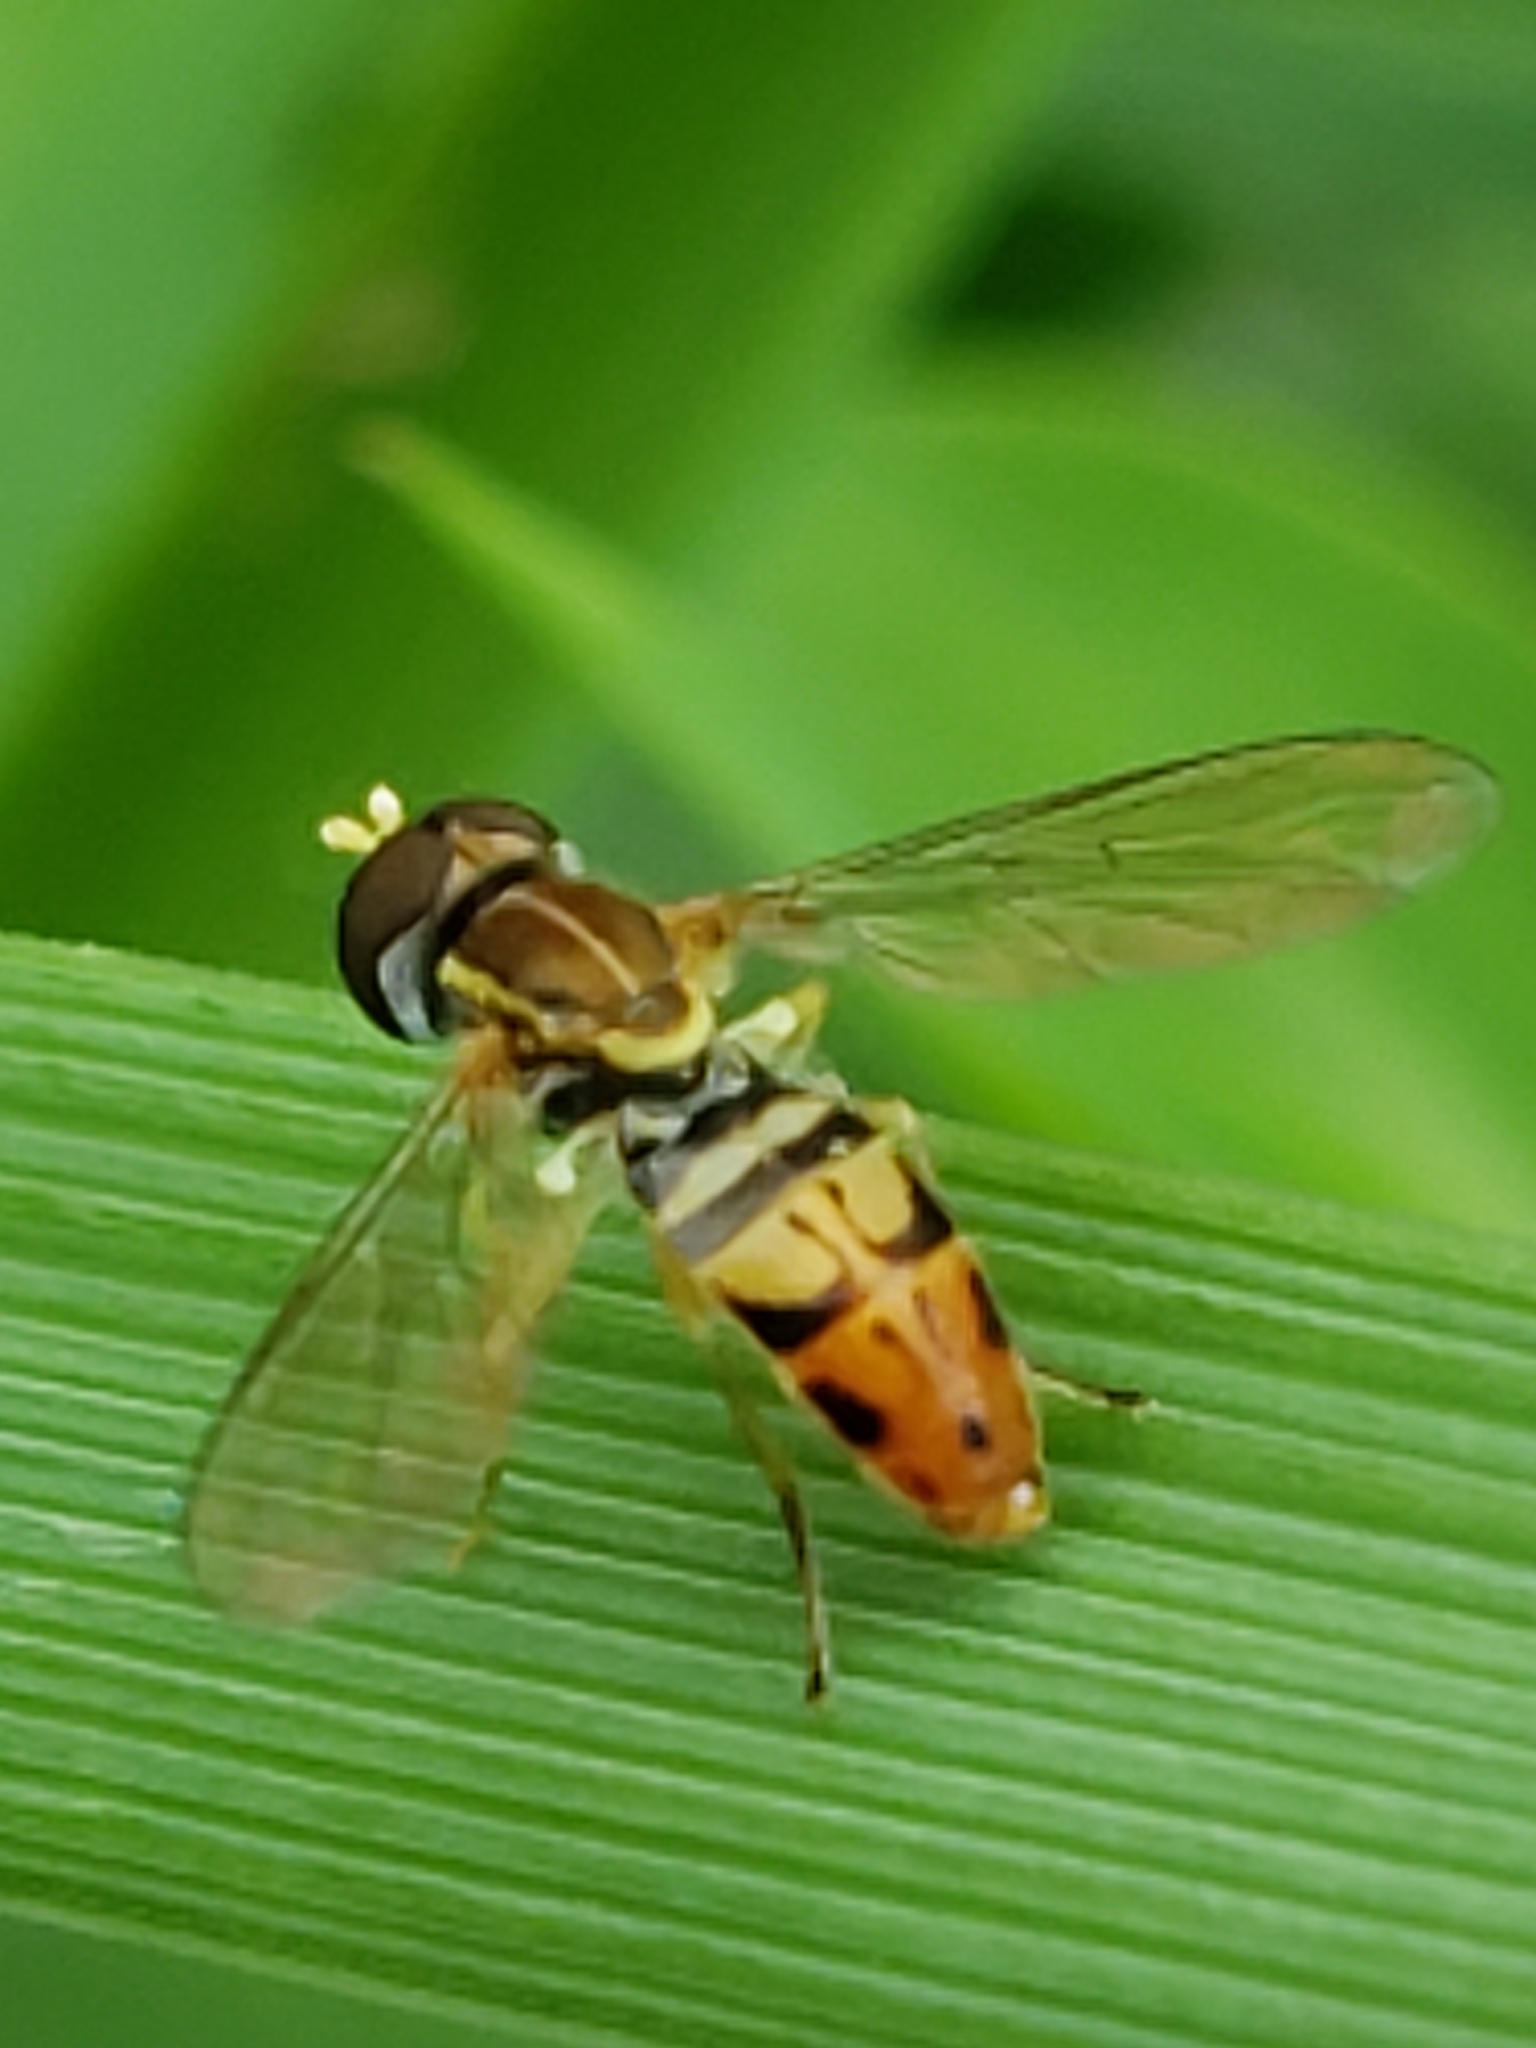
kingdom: Animalia
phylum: Arthropoda
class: Insecta
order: Diptera
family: Syrphidae
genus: Toxomerus
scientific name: Toxomerus marginatus
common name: Syrphid fly
